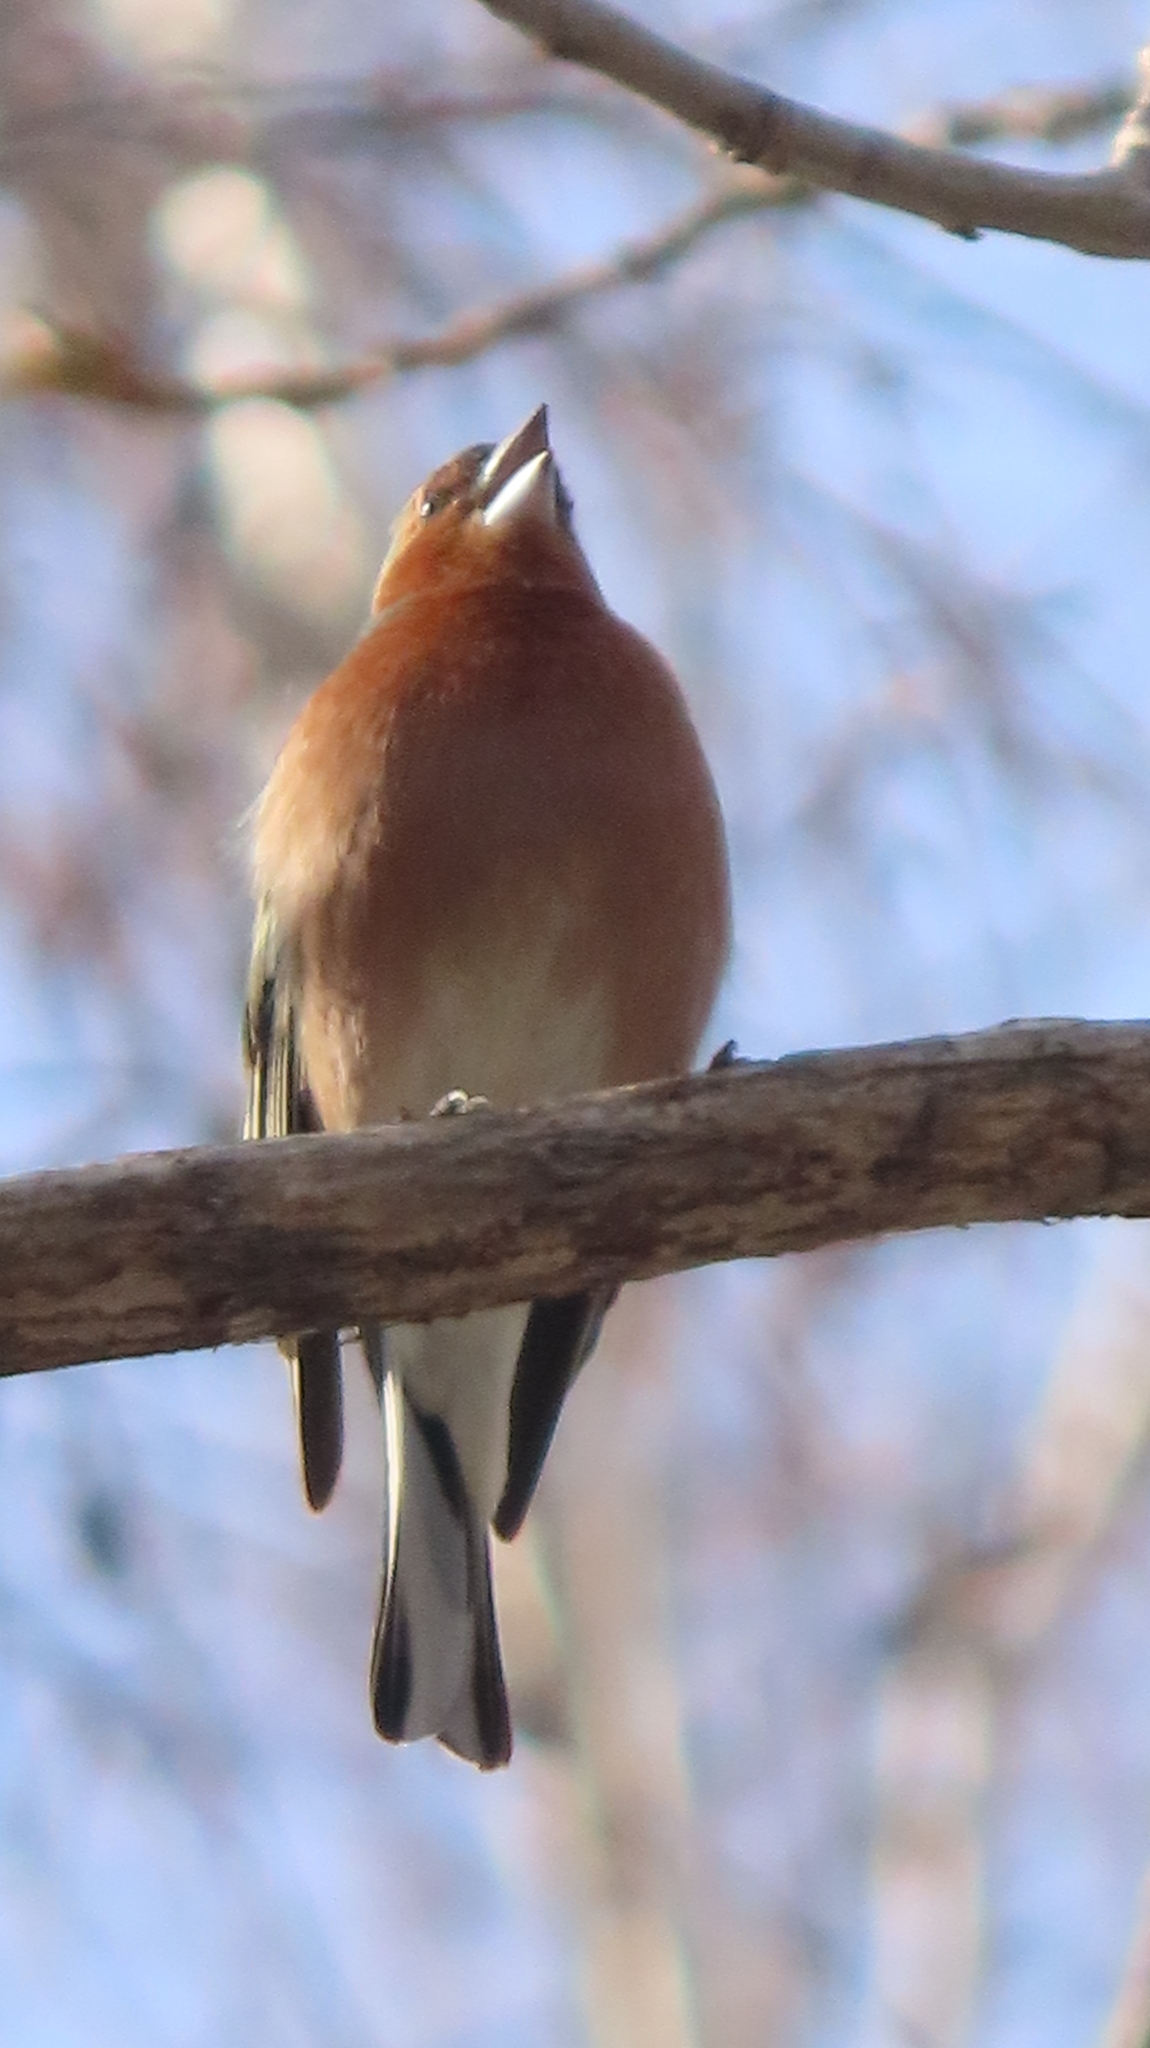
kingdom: Animalia
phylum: Chordata
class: Aves
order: Passeriformes
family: Fringillidae
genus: Fringilla
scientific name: Fringilla coelebs
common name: Common chaffinch
